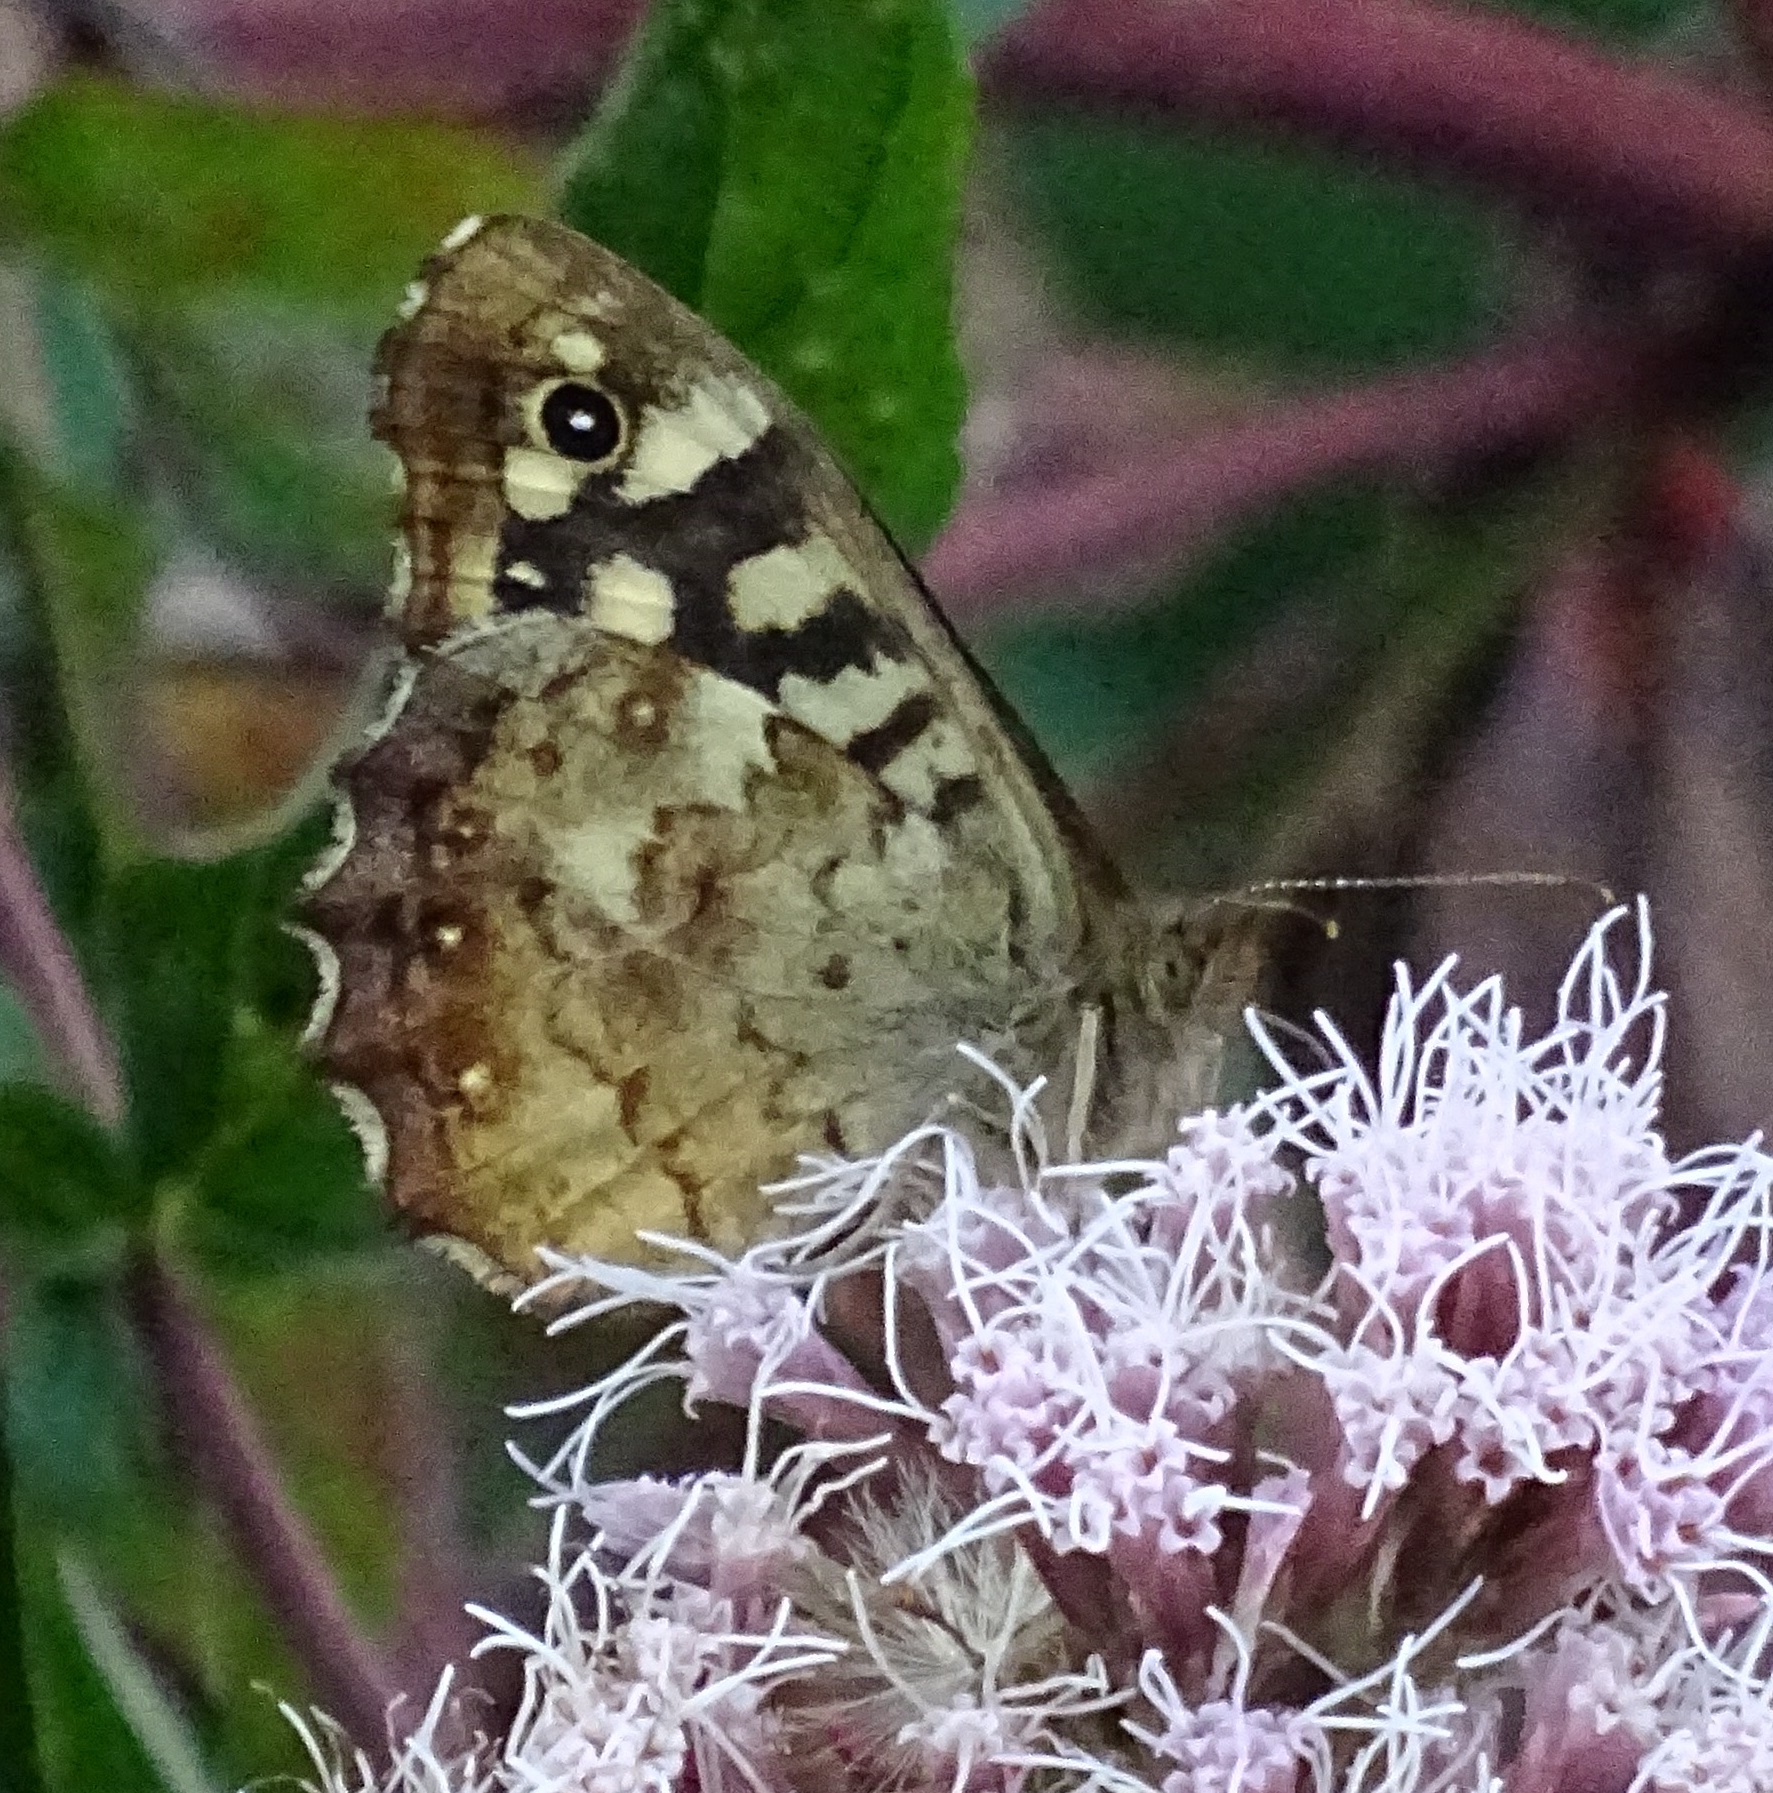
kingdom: Animalia
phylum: Arthropoda
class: Insecta
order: Lepidoptera
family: Nymphalidae
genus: Pararge
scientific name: Pararge aegeria
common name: Speckled wood
